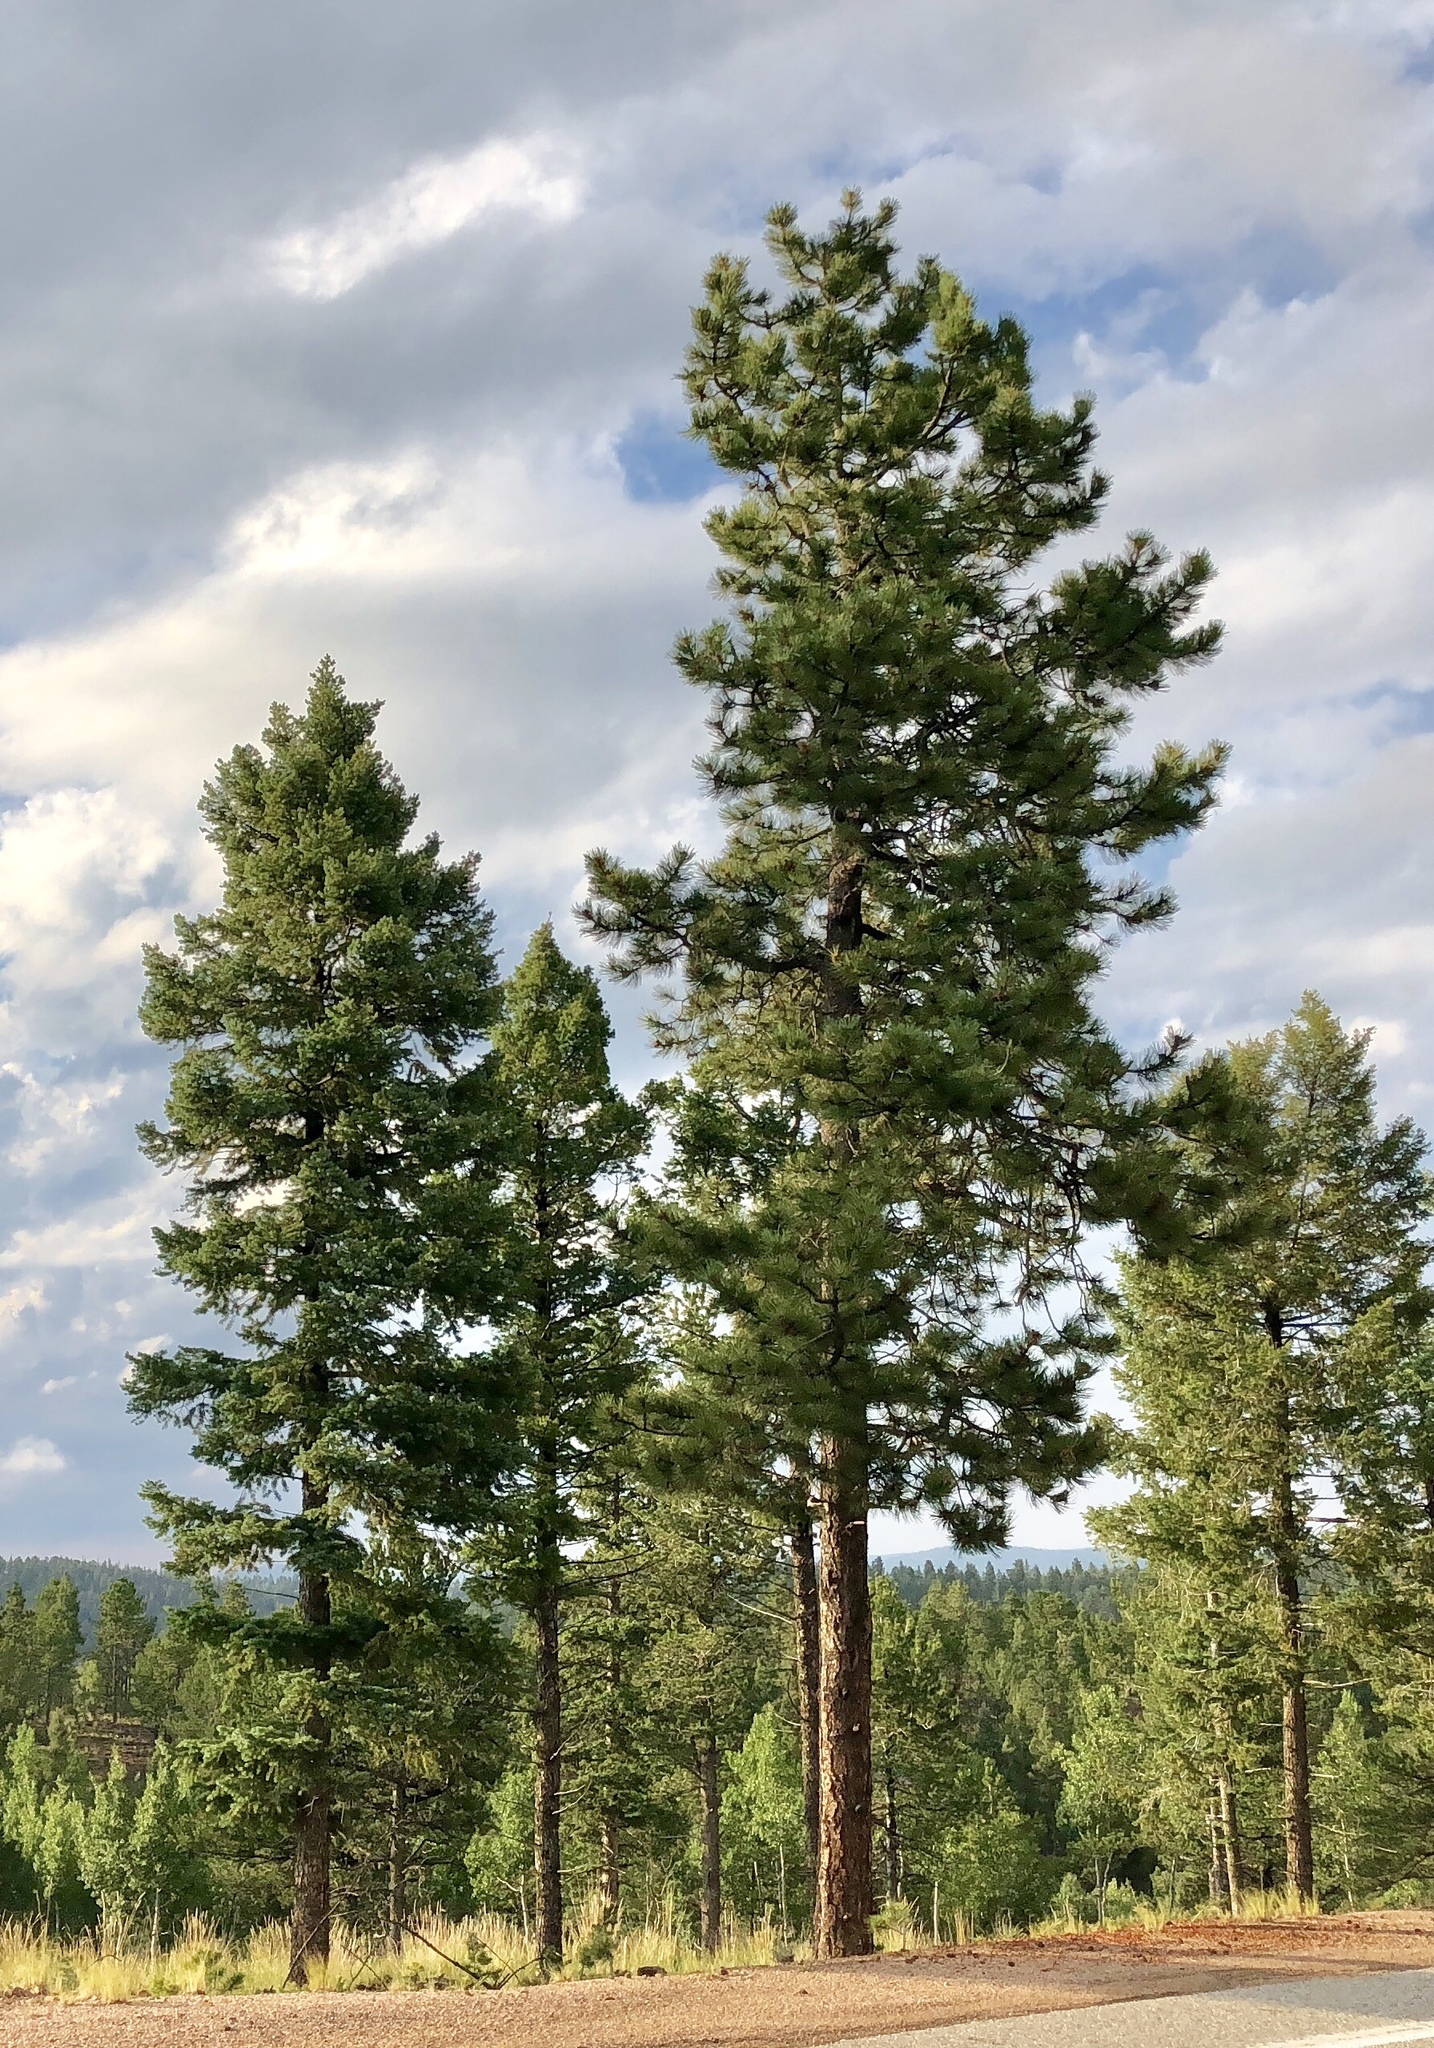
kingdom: Plantae
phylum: Tracheophyta
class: Pinopsida
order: Pinales
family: Pinaceae
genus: Pinus
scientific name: Pinus ponderosa
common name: Western yellow-pine
